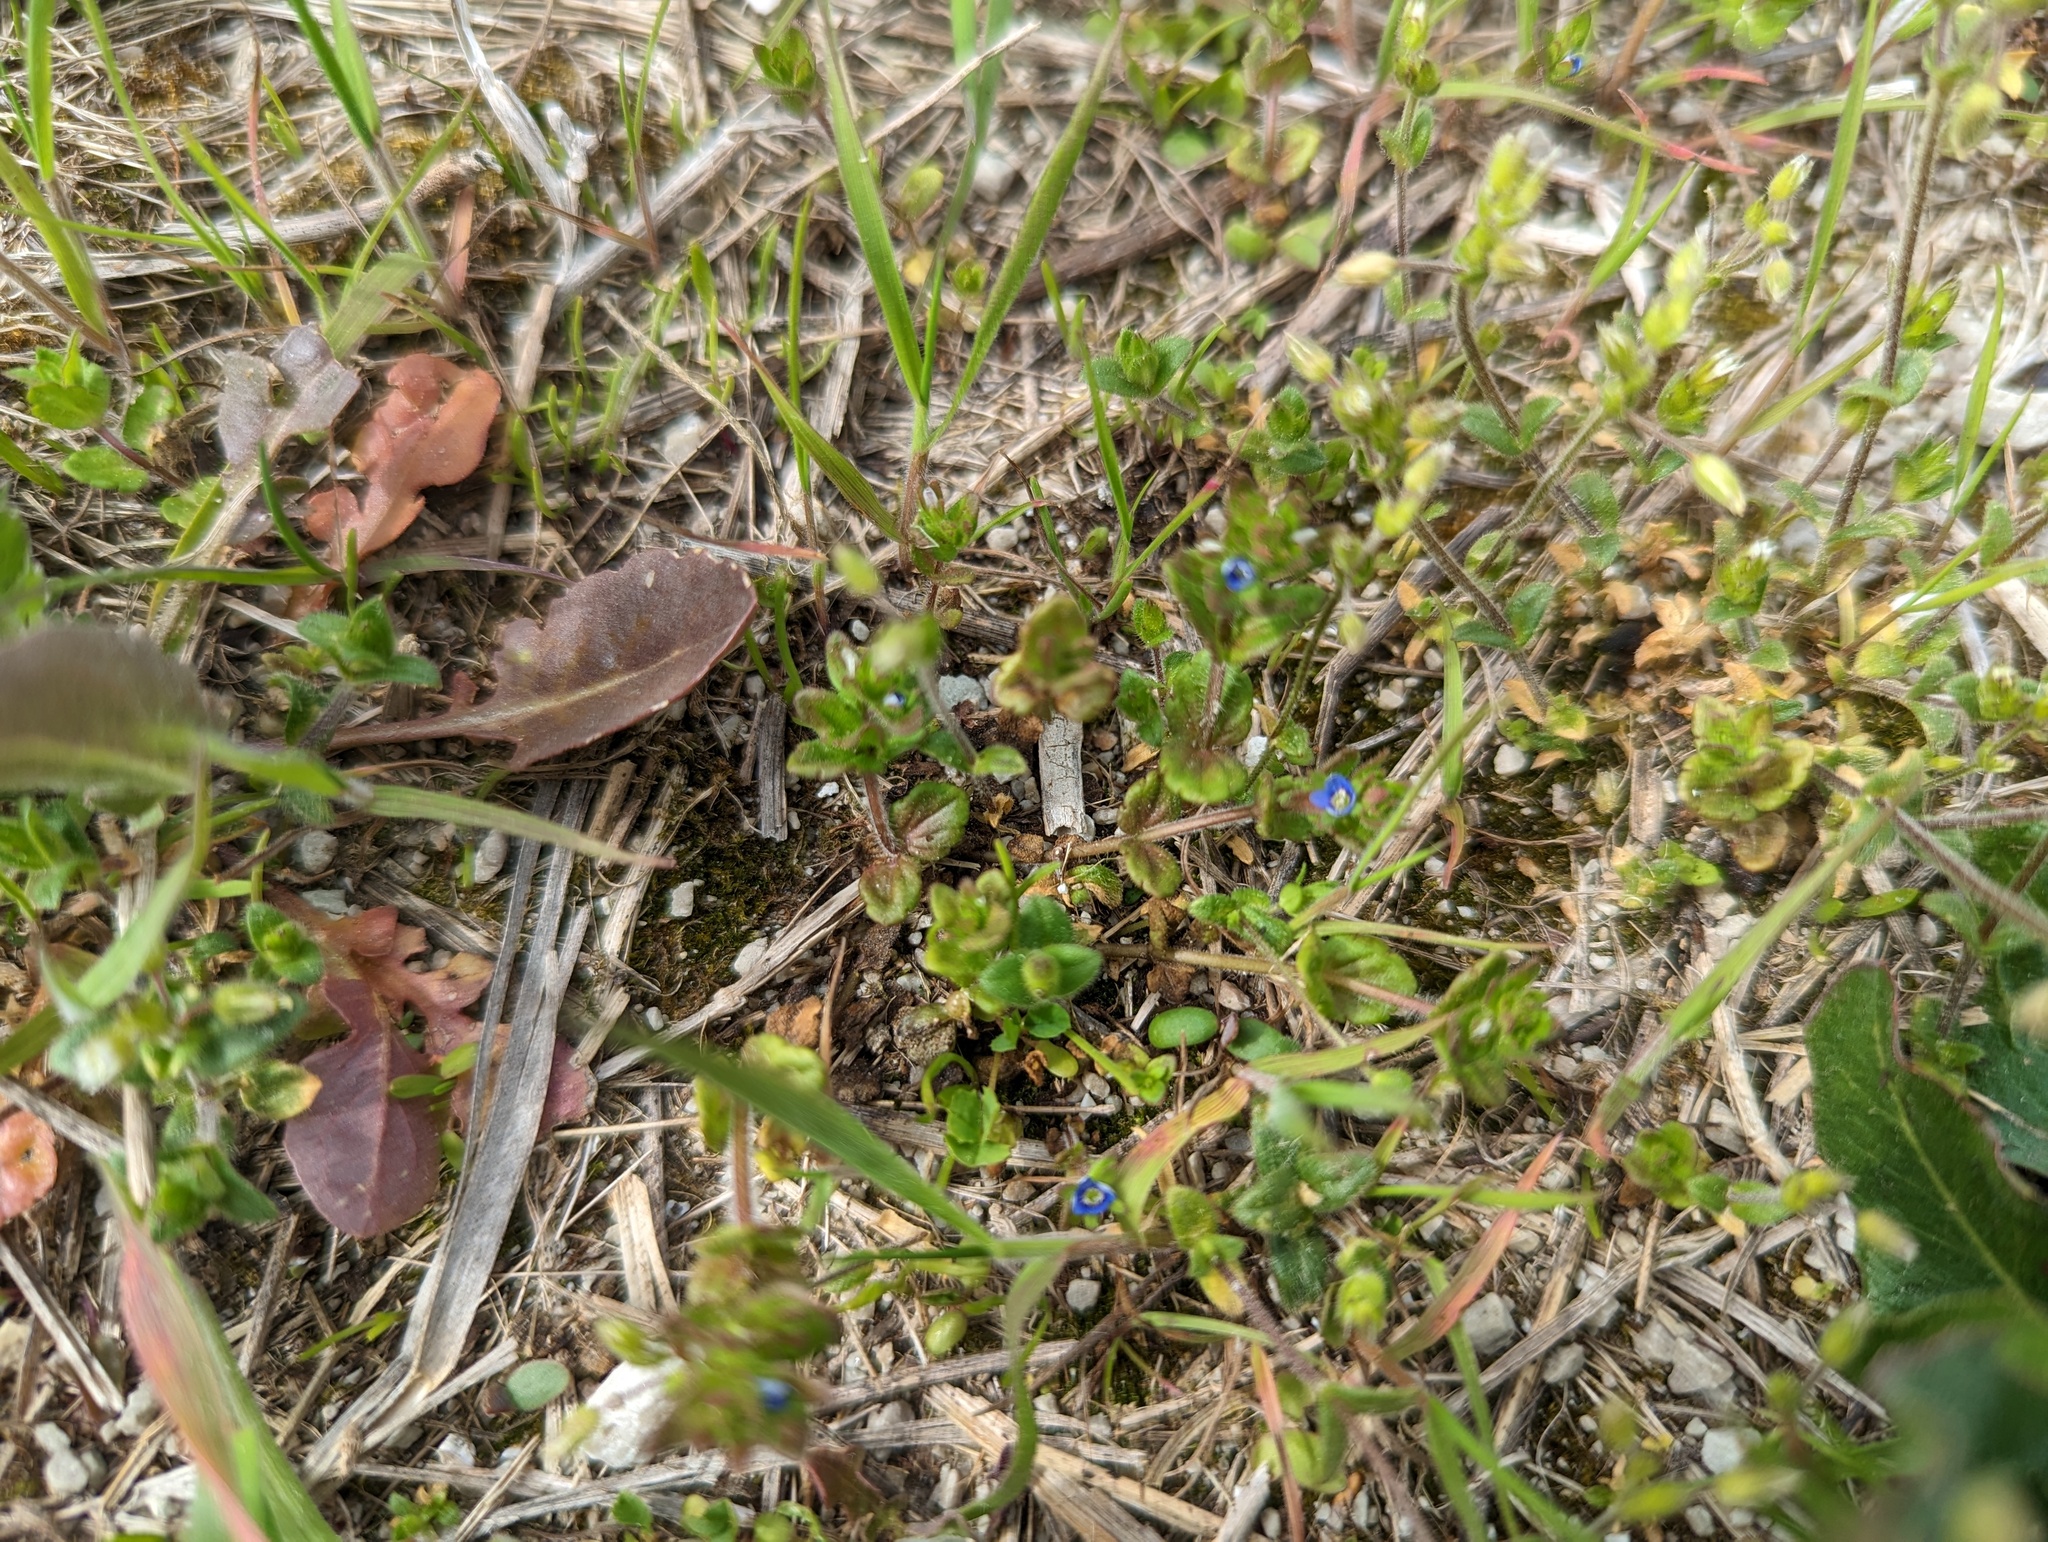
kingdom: Plantae
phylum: Tracheophyta
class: Magnoliopsida
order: Lamiales
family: Plantaginaceae
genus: Veronica
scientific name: Veronica arvensis
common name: Corn speedwell
